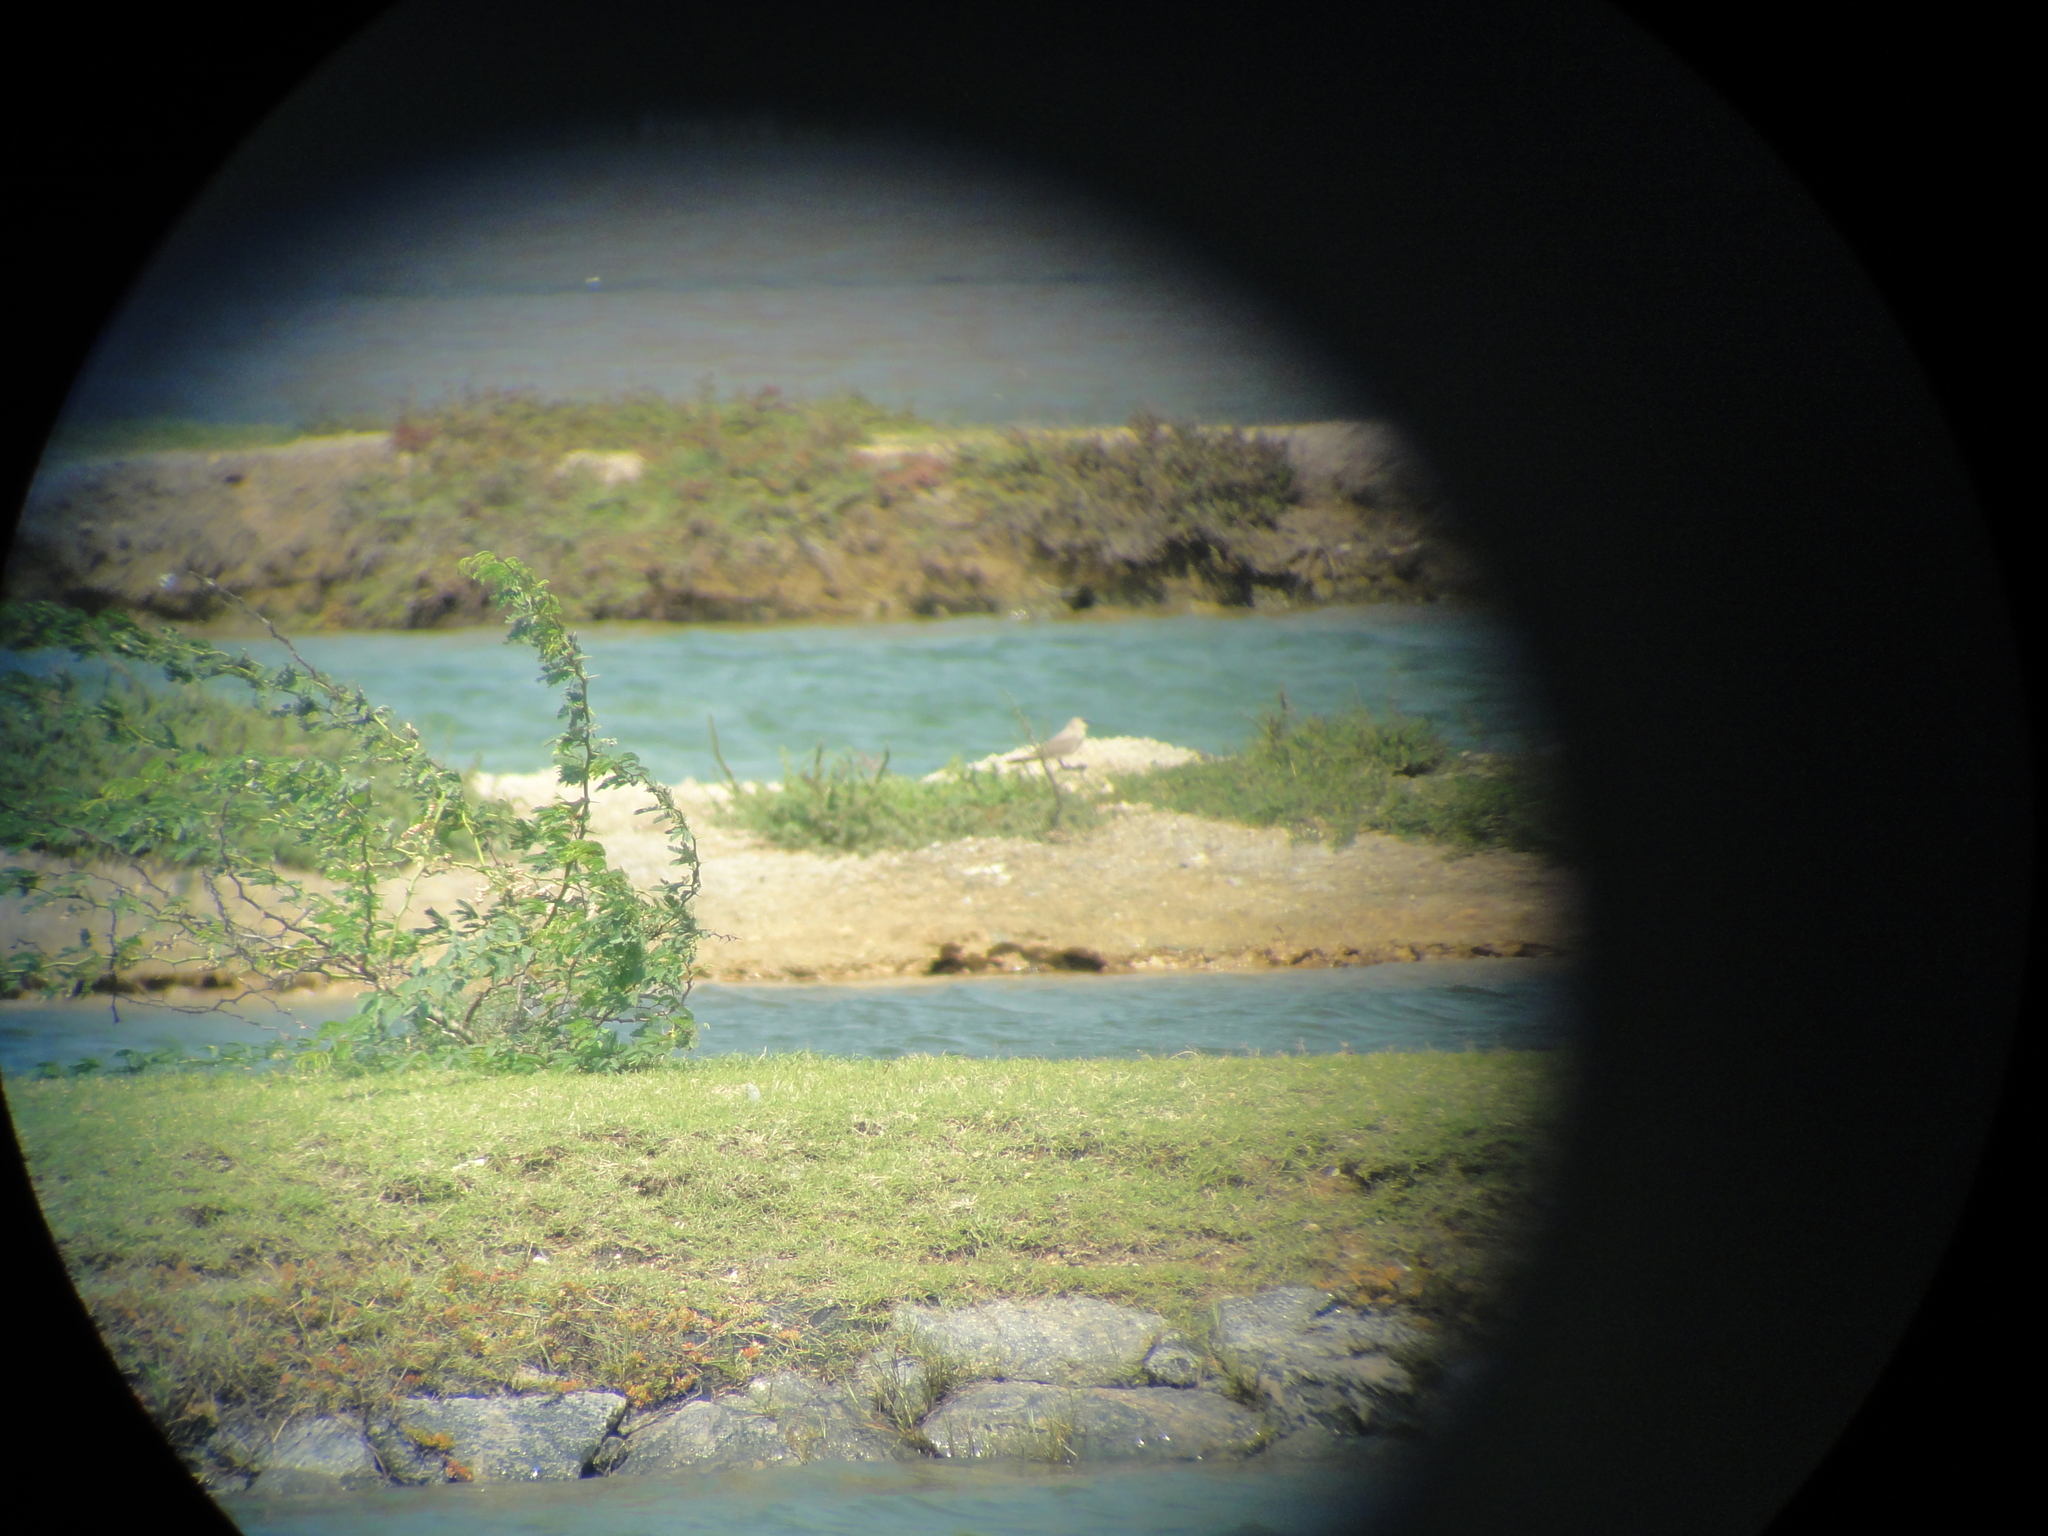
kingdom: Animalia
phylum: Chordata
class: Aves
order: Charadriiformes
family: Glareolidae
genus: Glareola
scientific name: Glareola lactea
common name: Small pratincole
